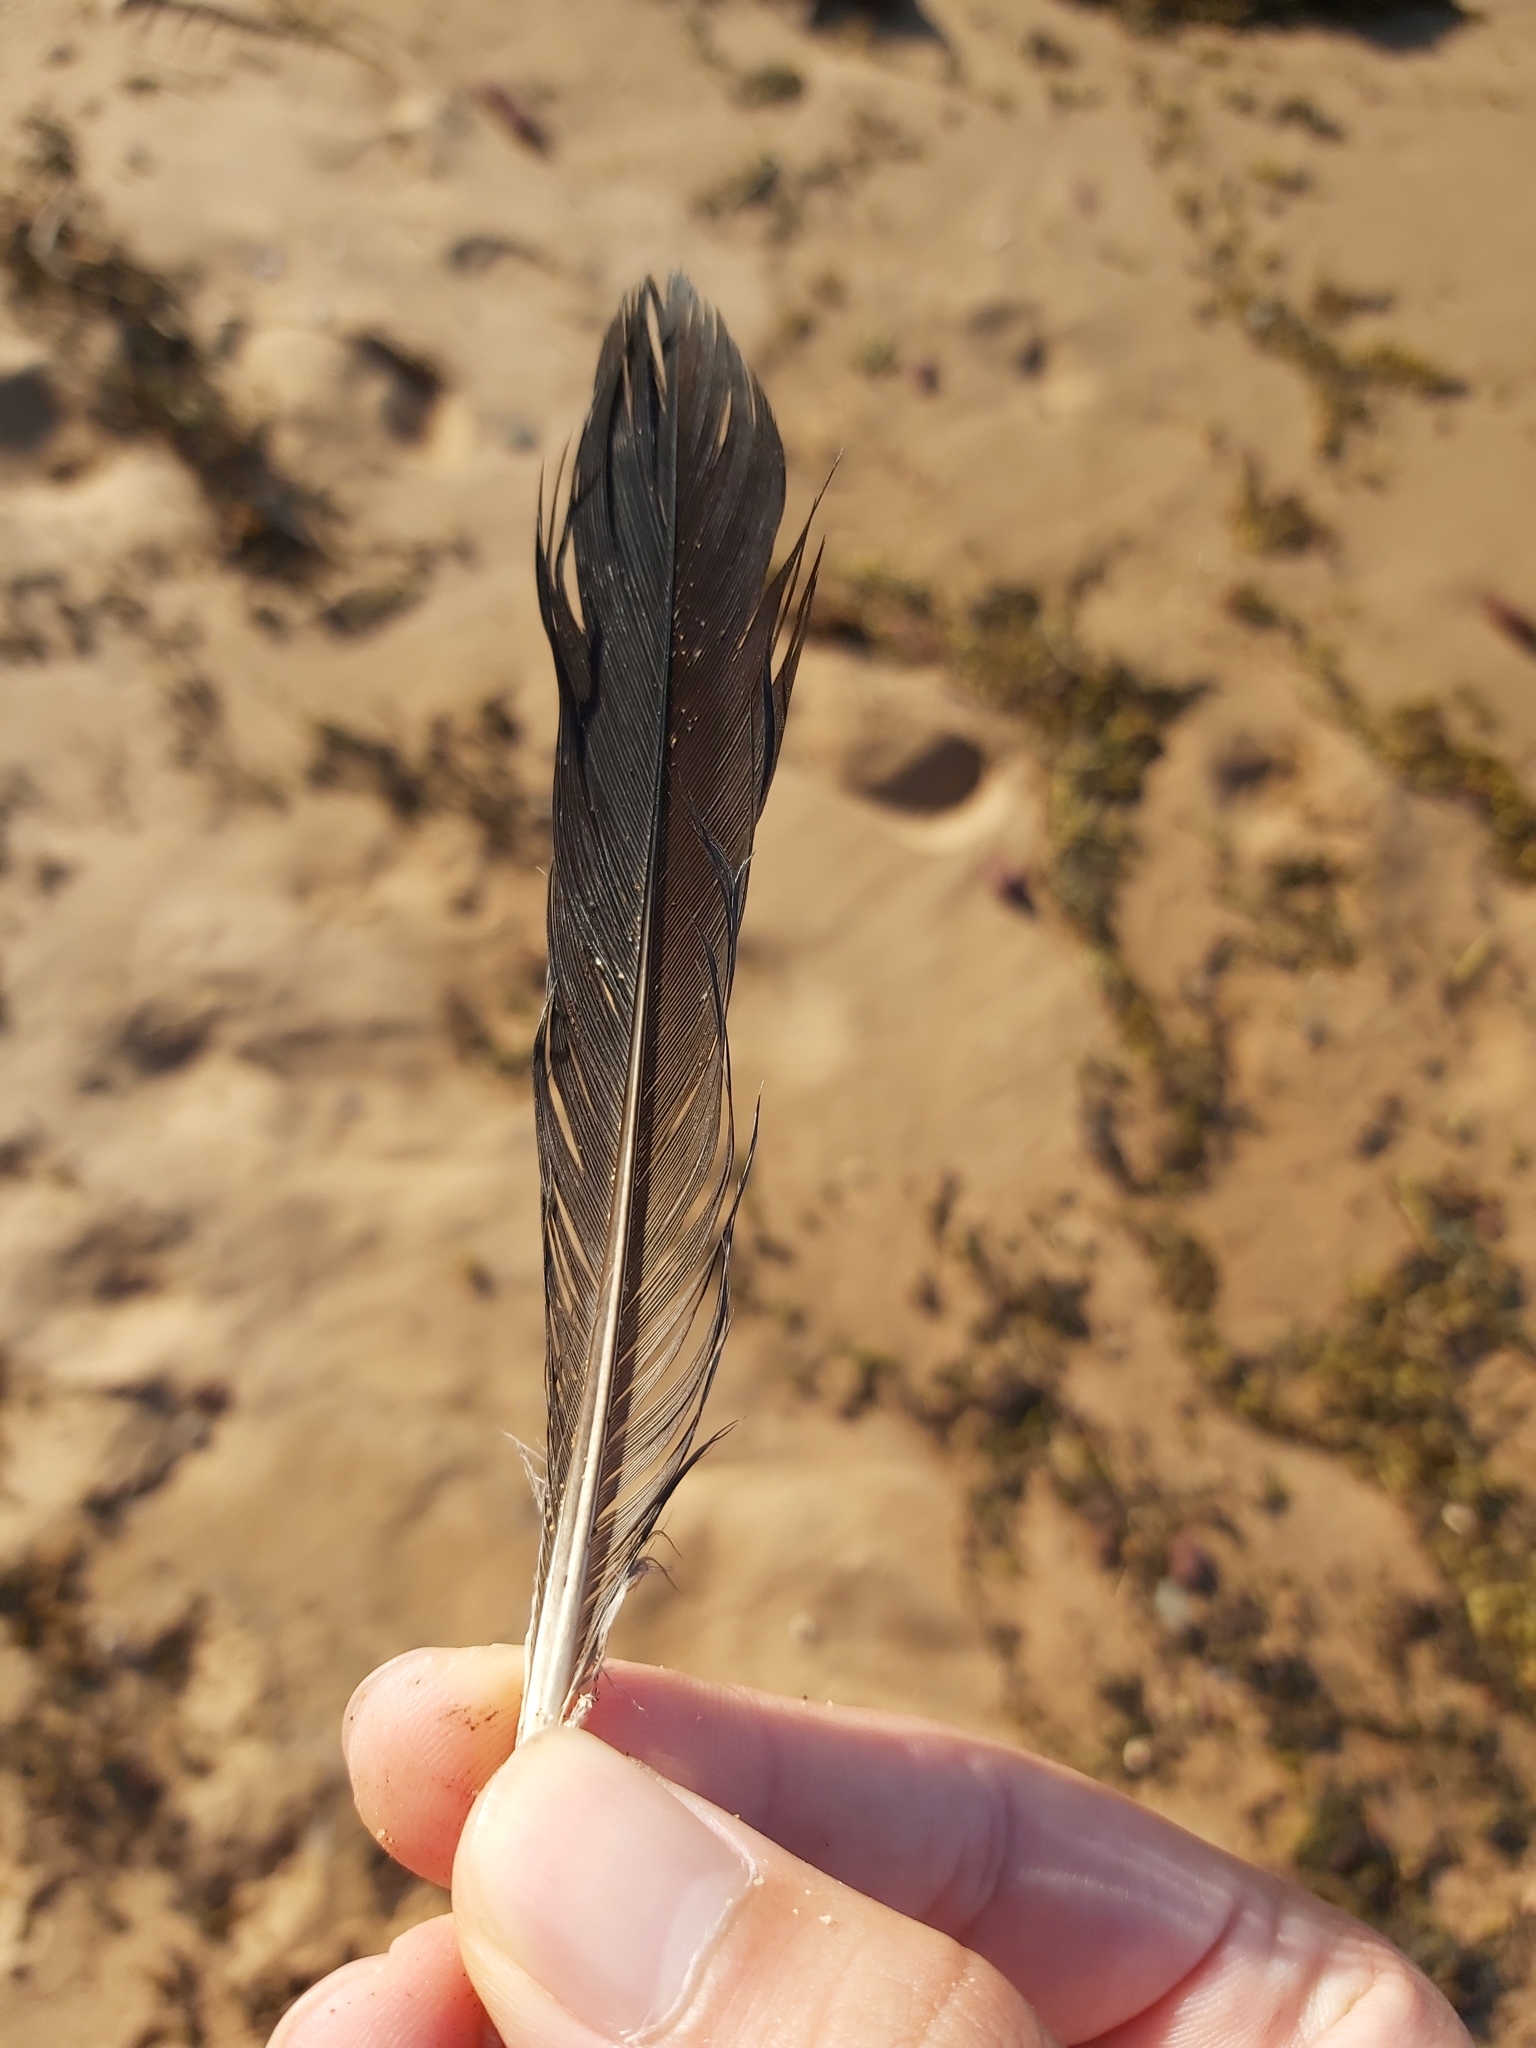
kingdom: Animalia
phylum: Chordata
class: Aves
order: Columbiformes
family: Columbidae
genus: Columba
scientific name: Columba livia
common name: Rock pigeon
